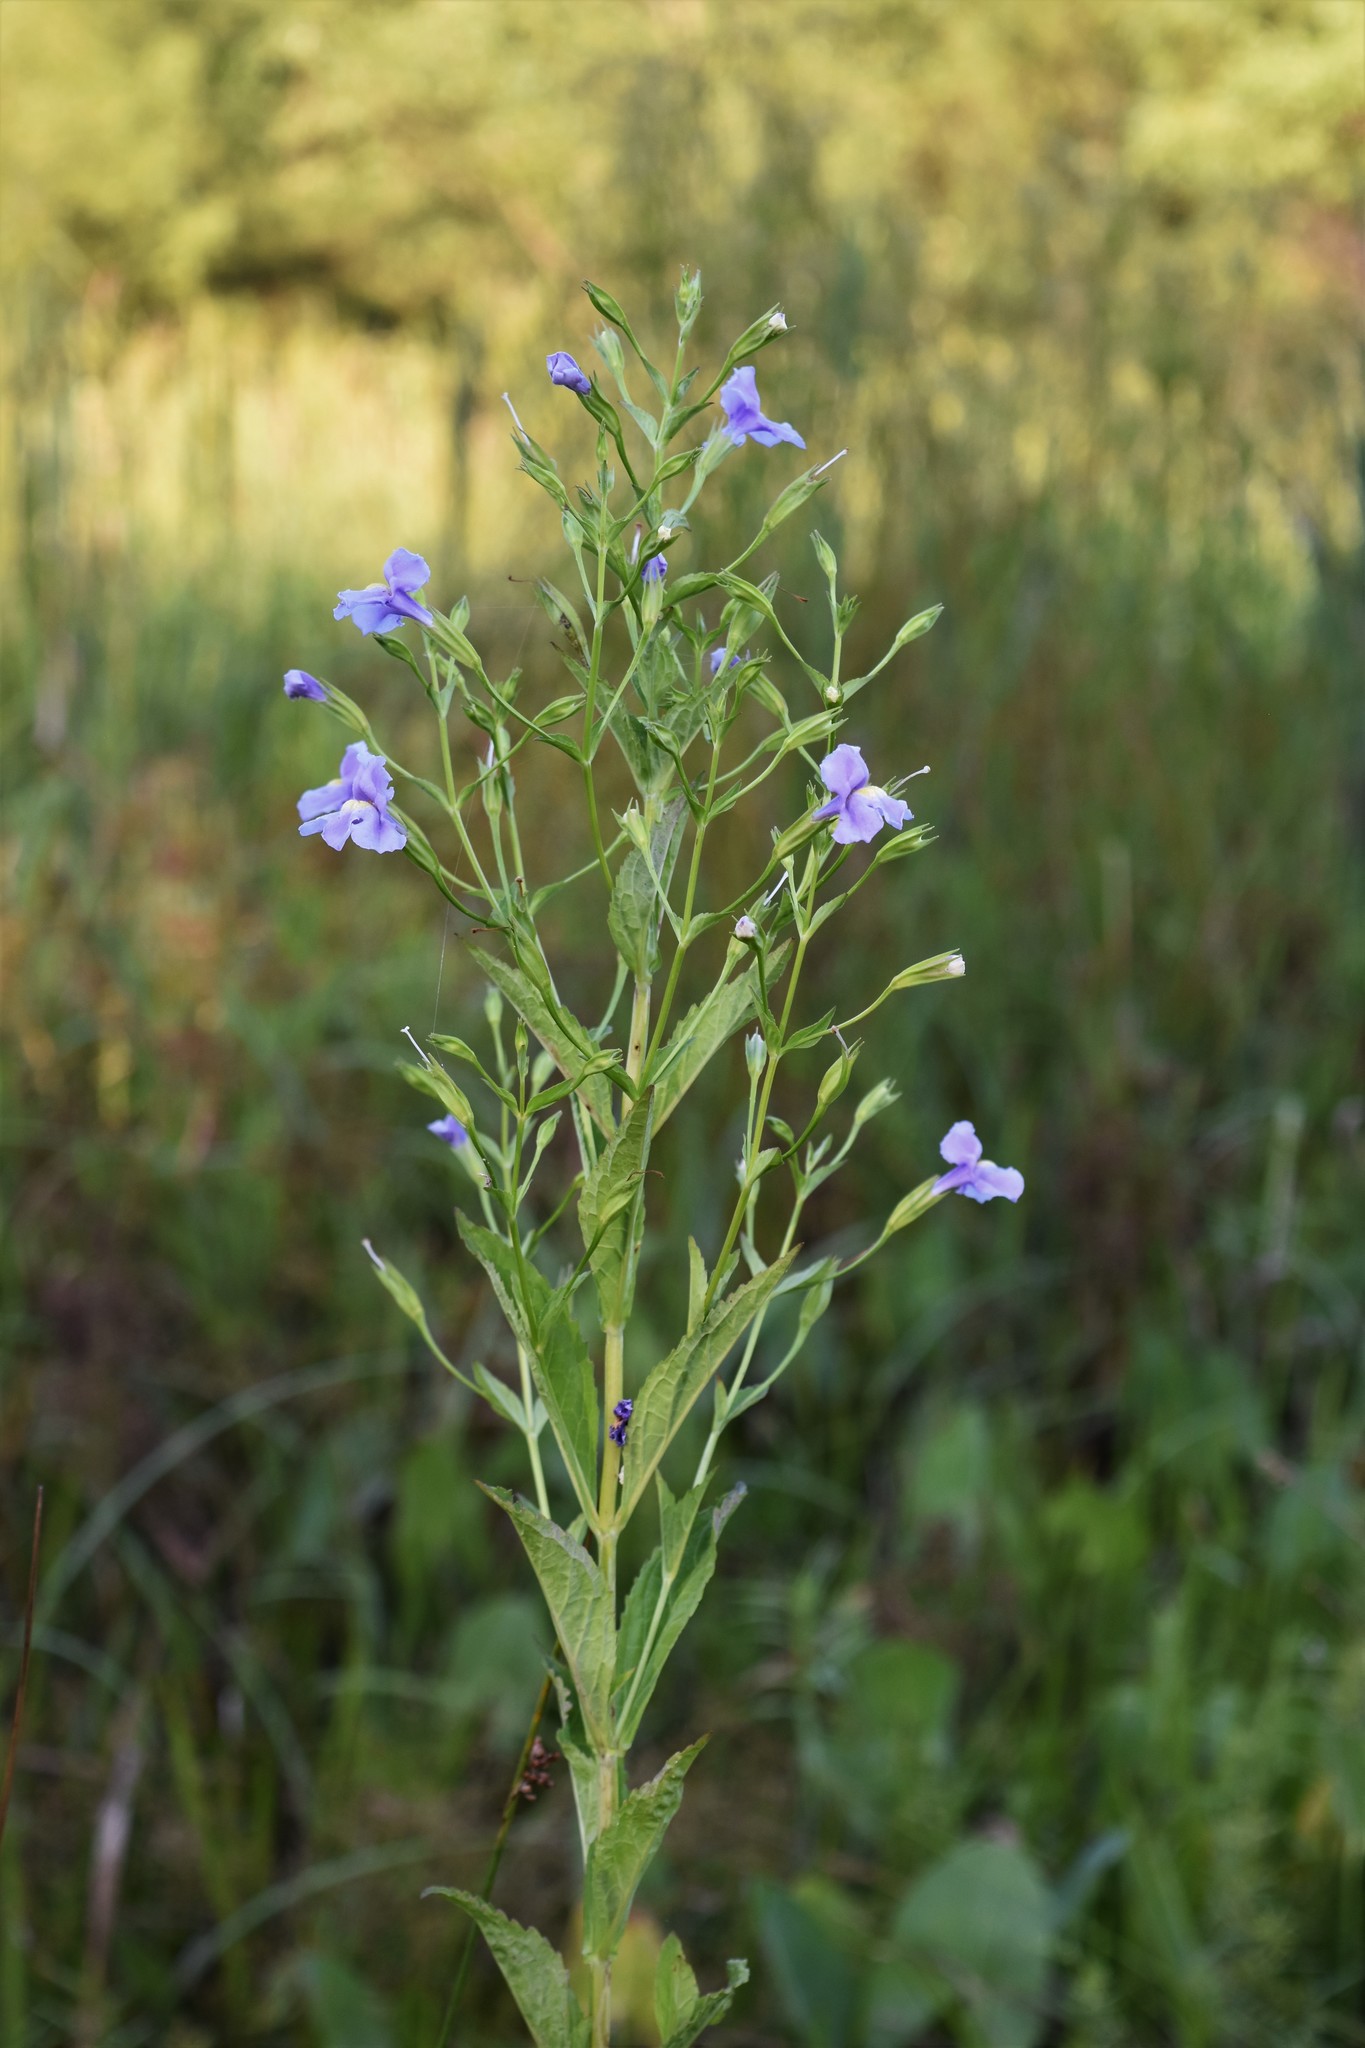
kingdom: Plantae
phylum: Tracheophyta
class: Magnoliopsida
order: Lamiales
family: Phrymaceae
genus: Mimulus
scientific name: Mimulus ringens
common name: Allegheny monkeyflower
